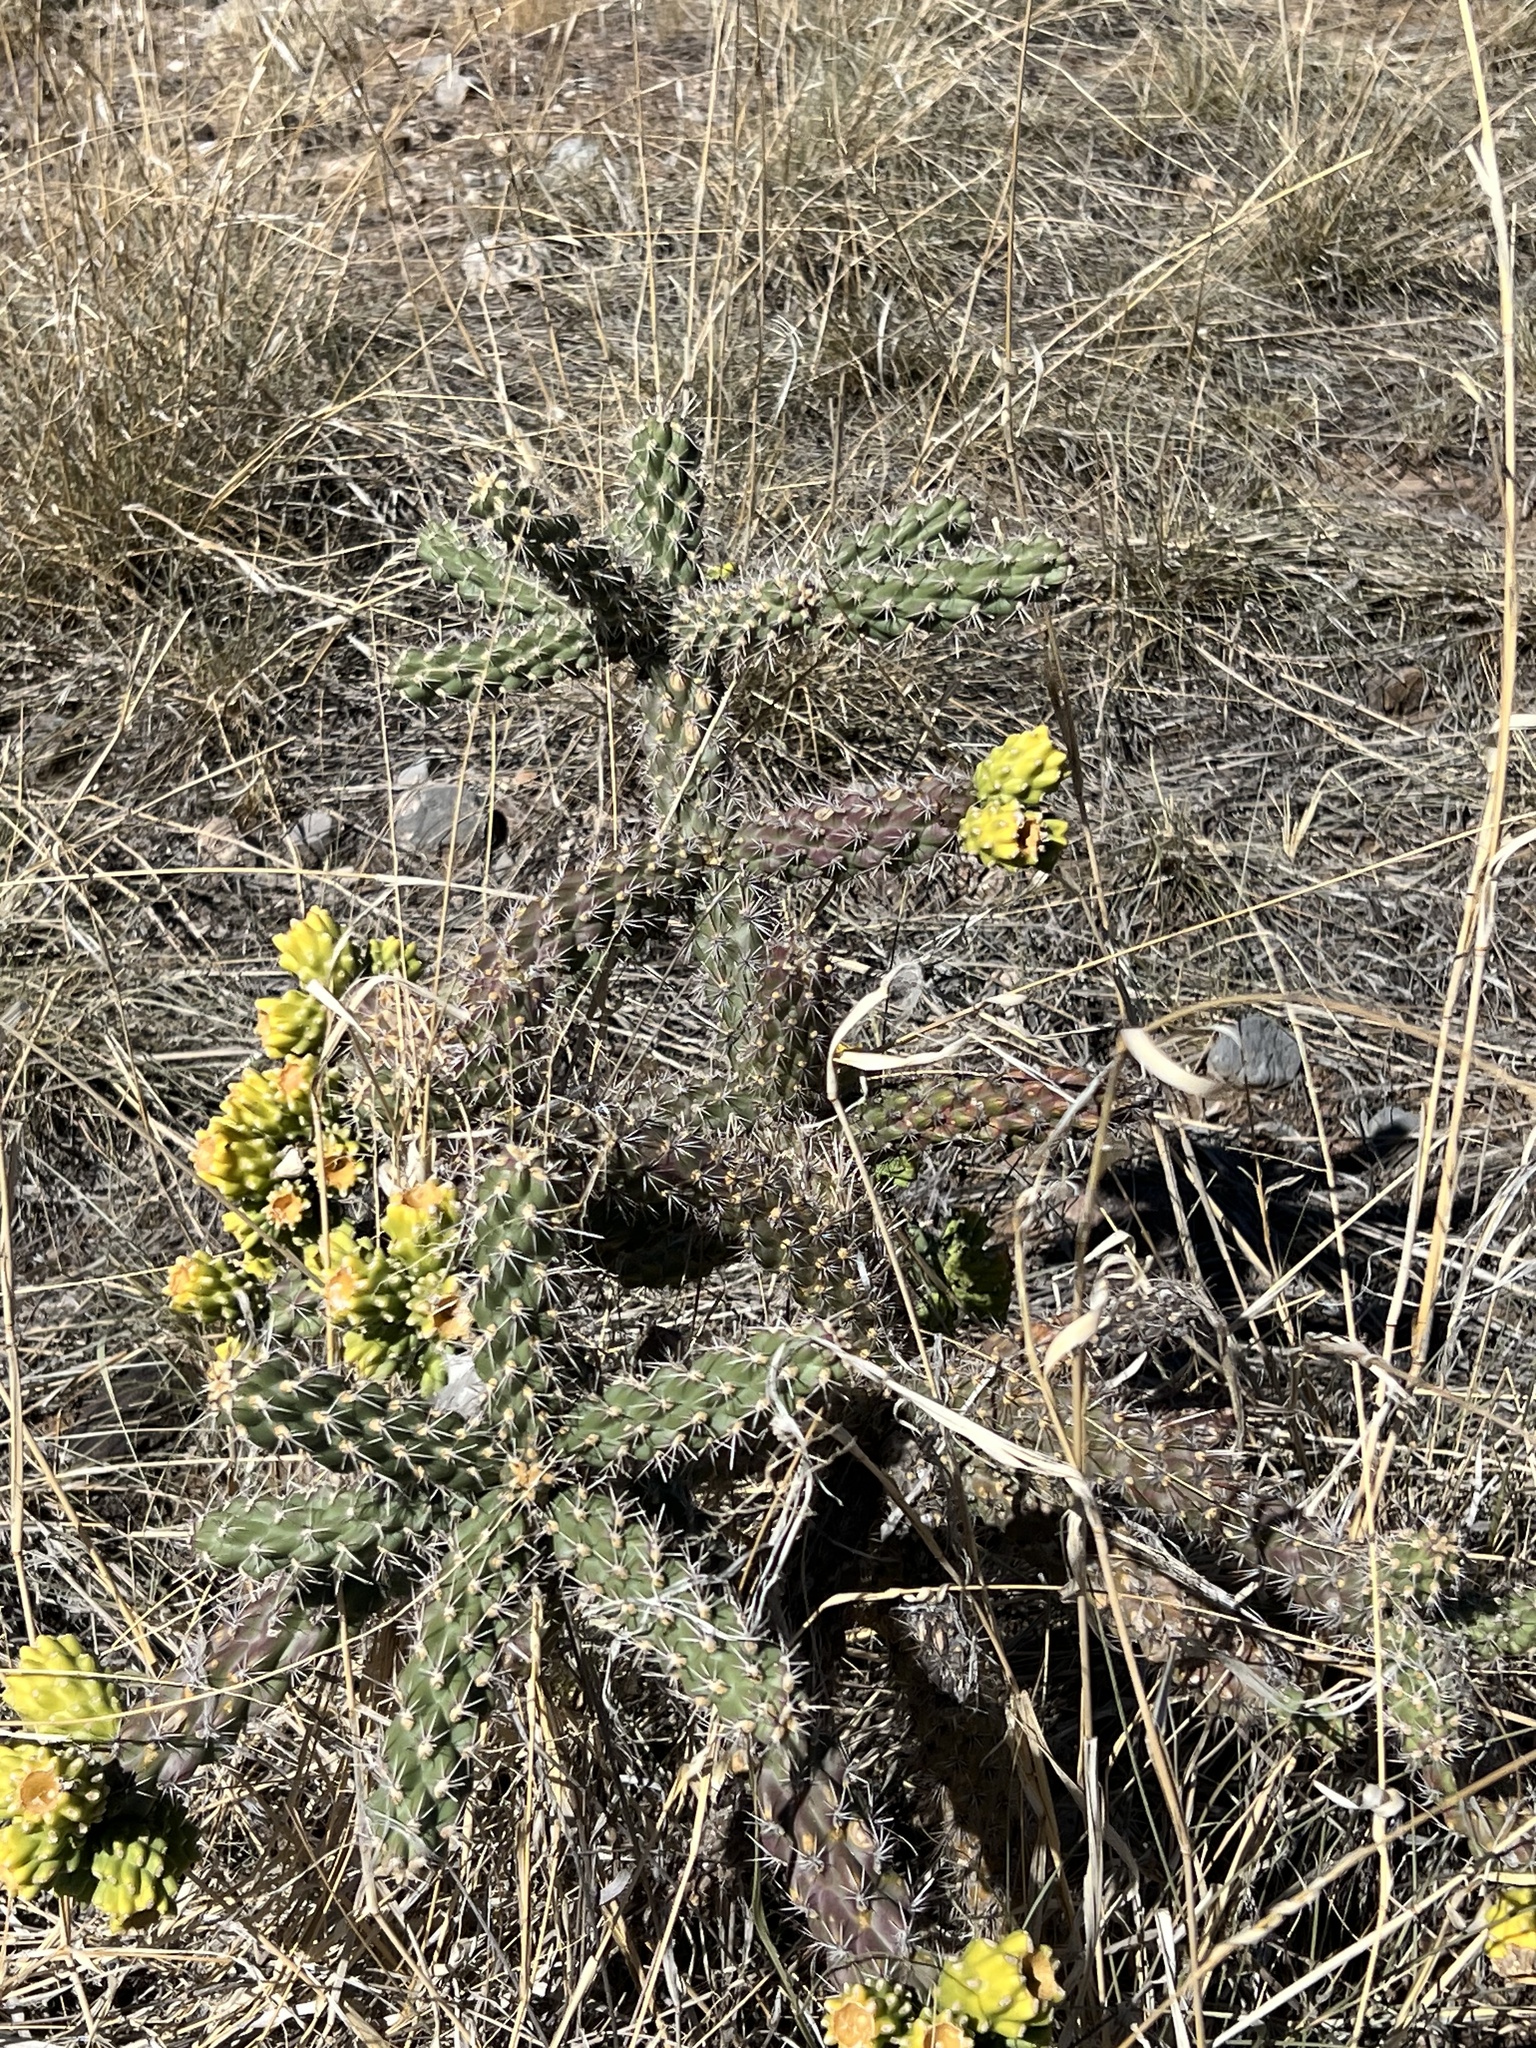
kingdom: Plantae
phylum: Tracheophyta
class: Magnoliopsida
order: Caryophyllales
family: Cactaceae
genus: Cylindropuntia
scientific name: Cylindropuntia imbricata
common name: Candelabrum cactus
